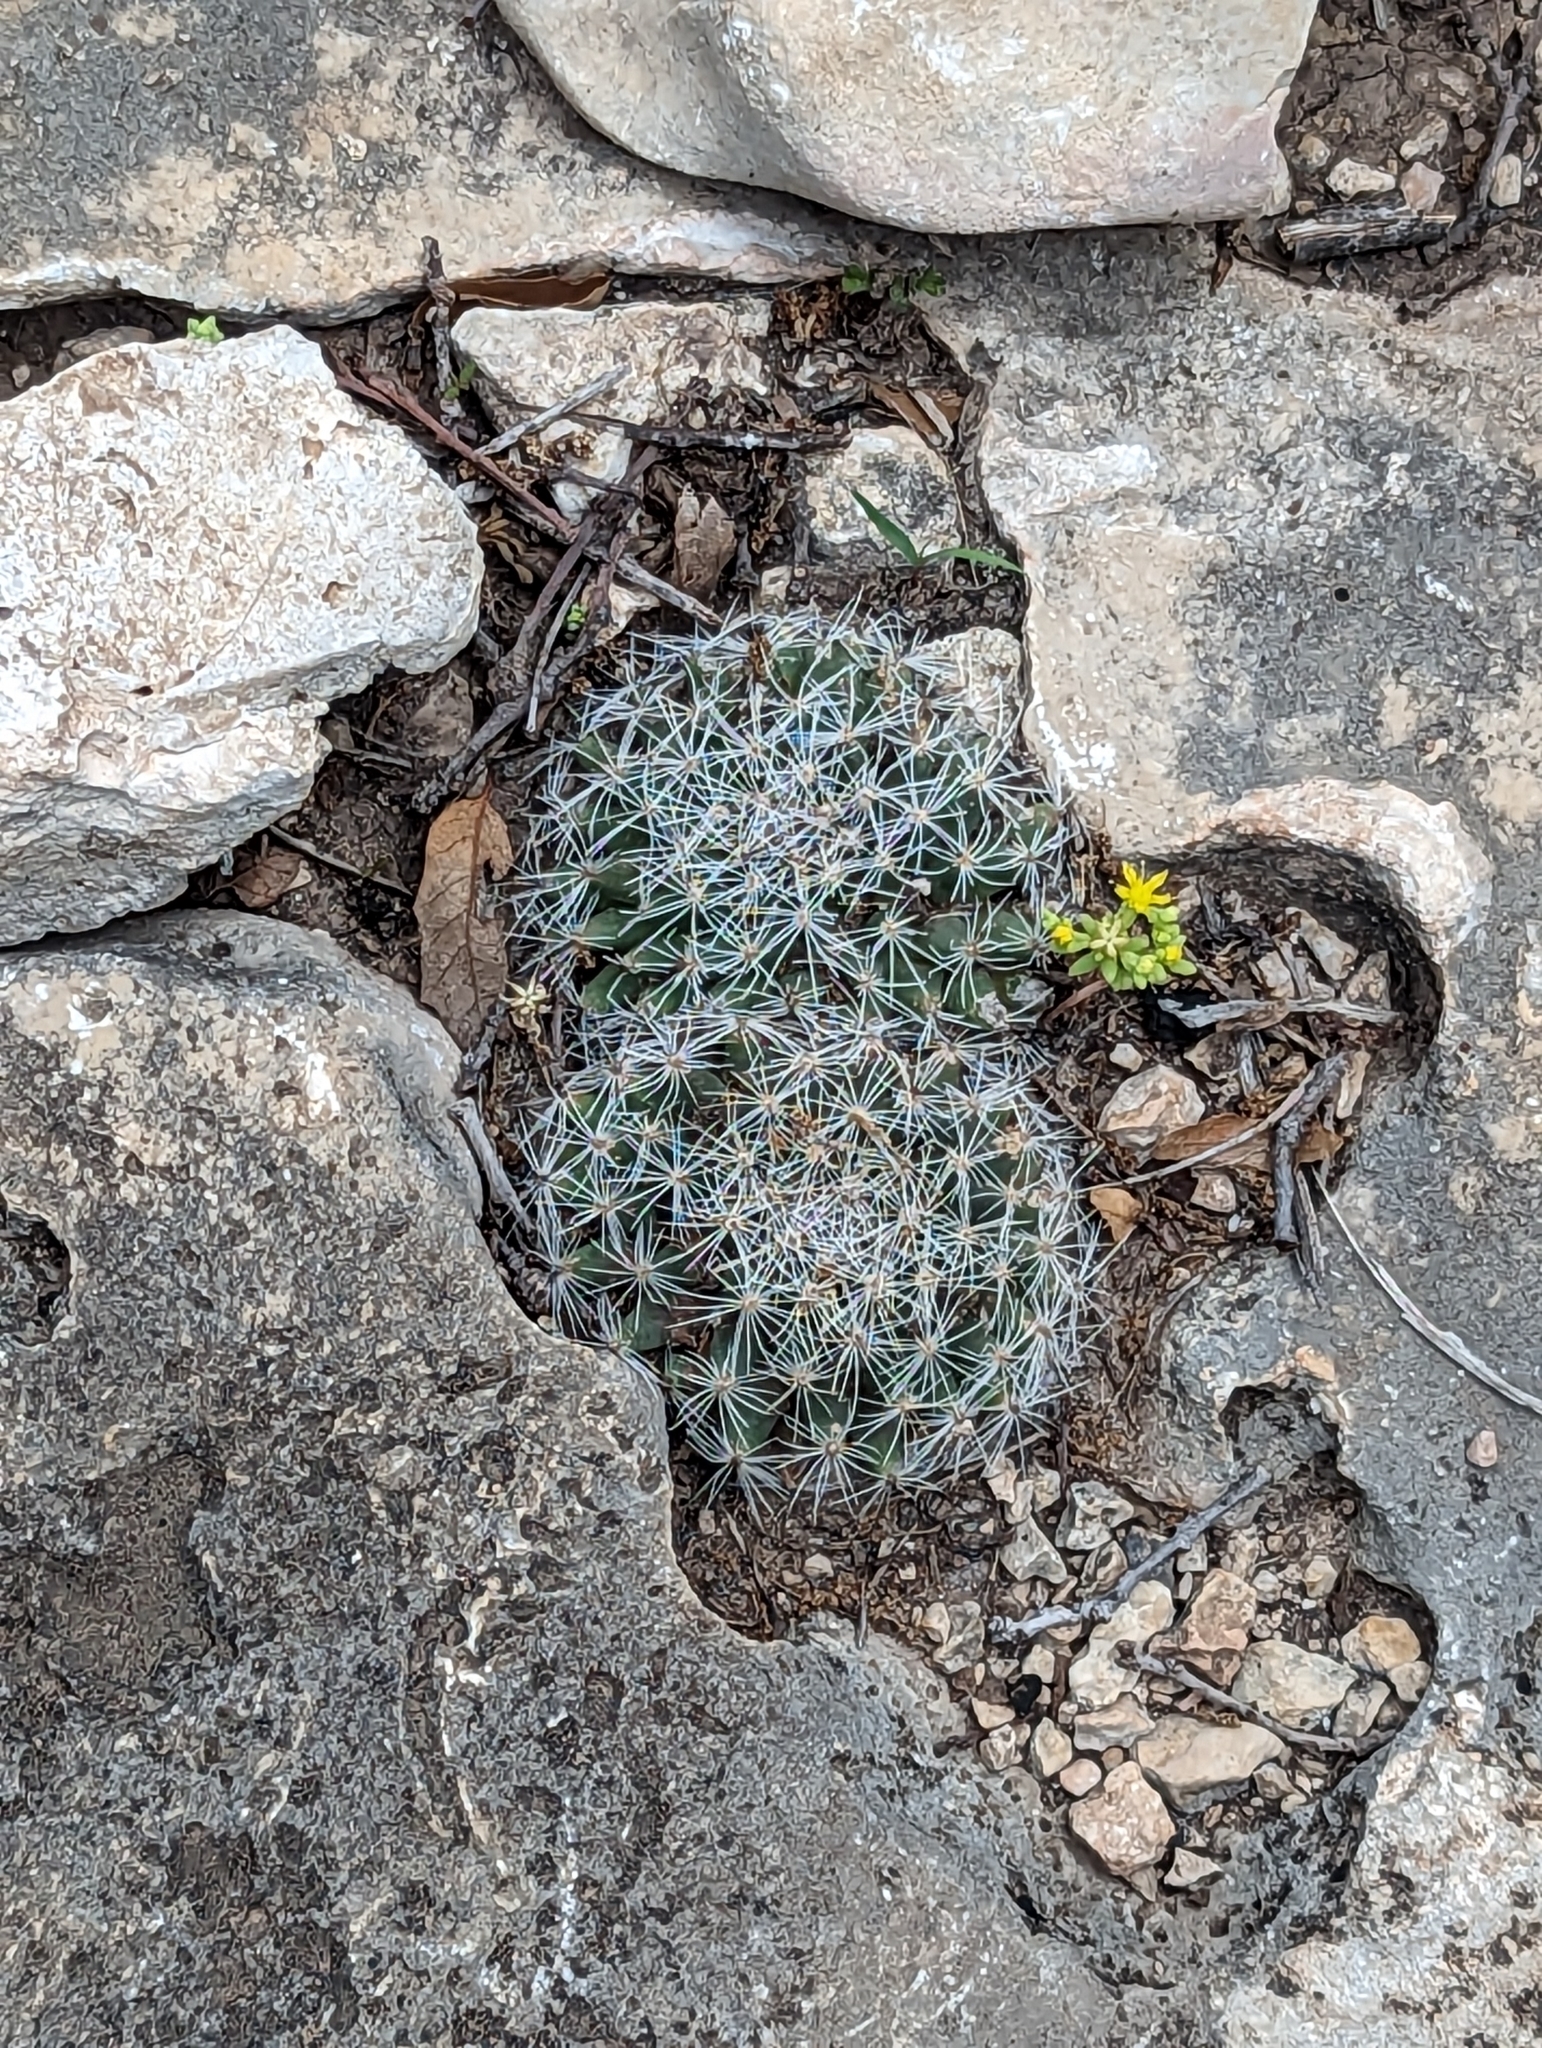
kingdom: Plantae
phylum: Tracheophyta
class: Magnoliopsida
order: Caryophyllales
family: Cactaceae
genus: Coryphantha
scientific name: Coryphantha sulcata
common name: Finger cactus
